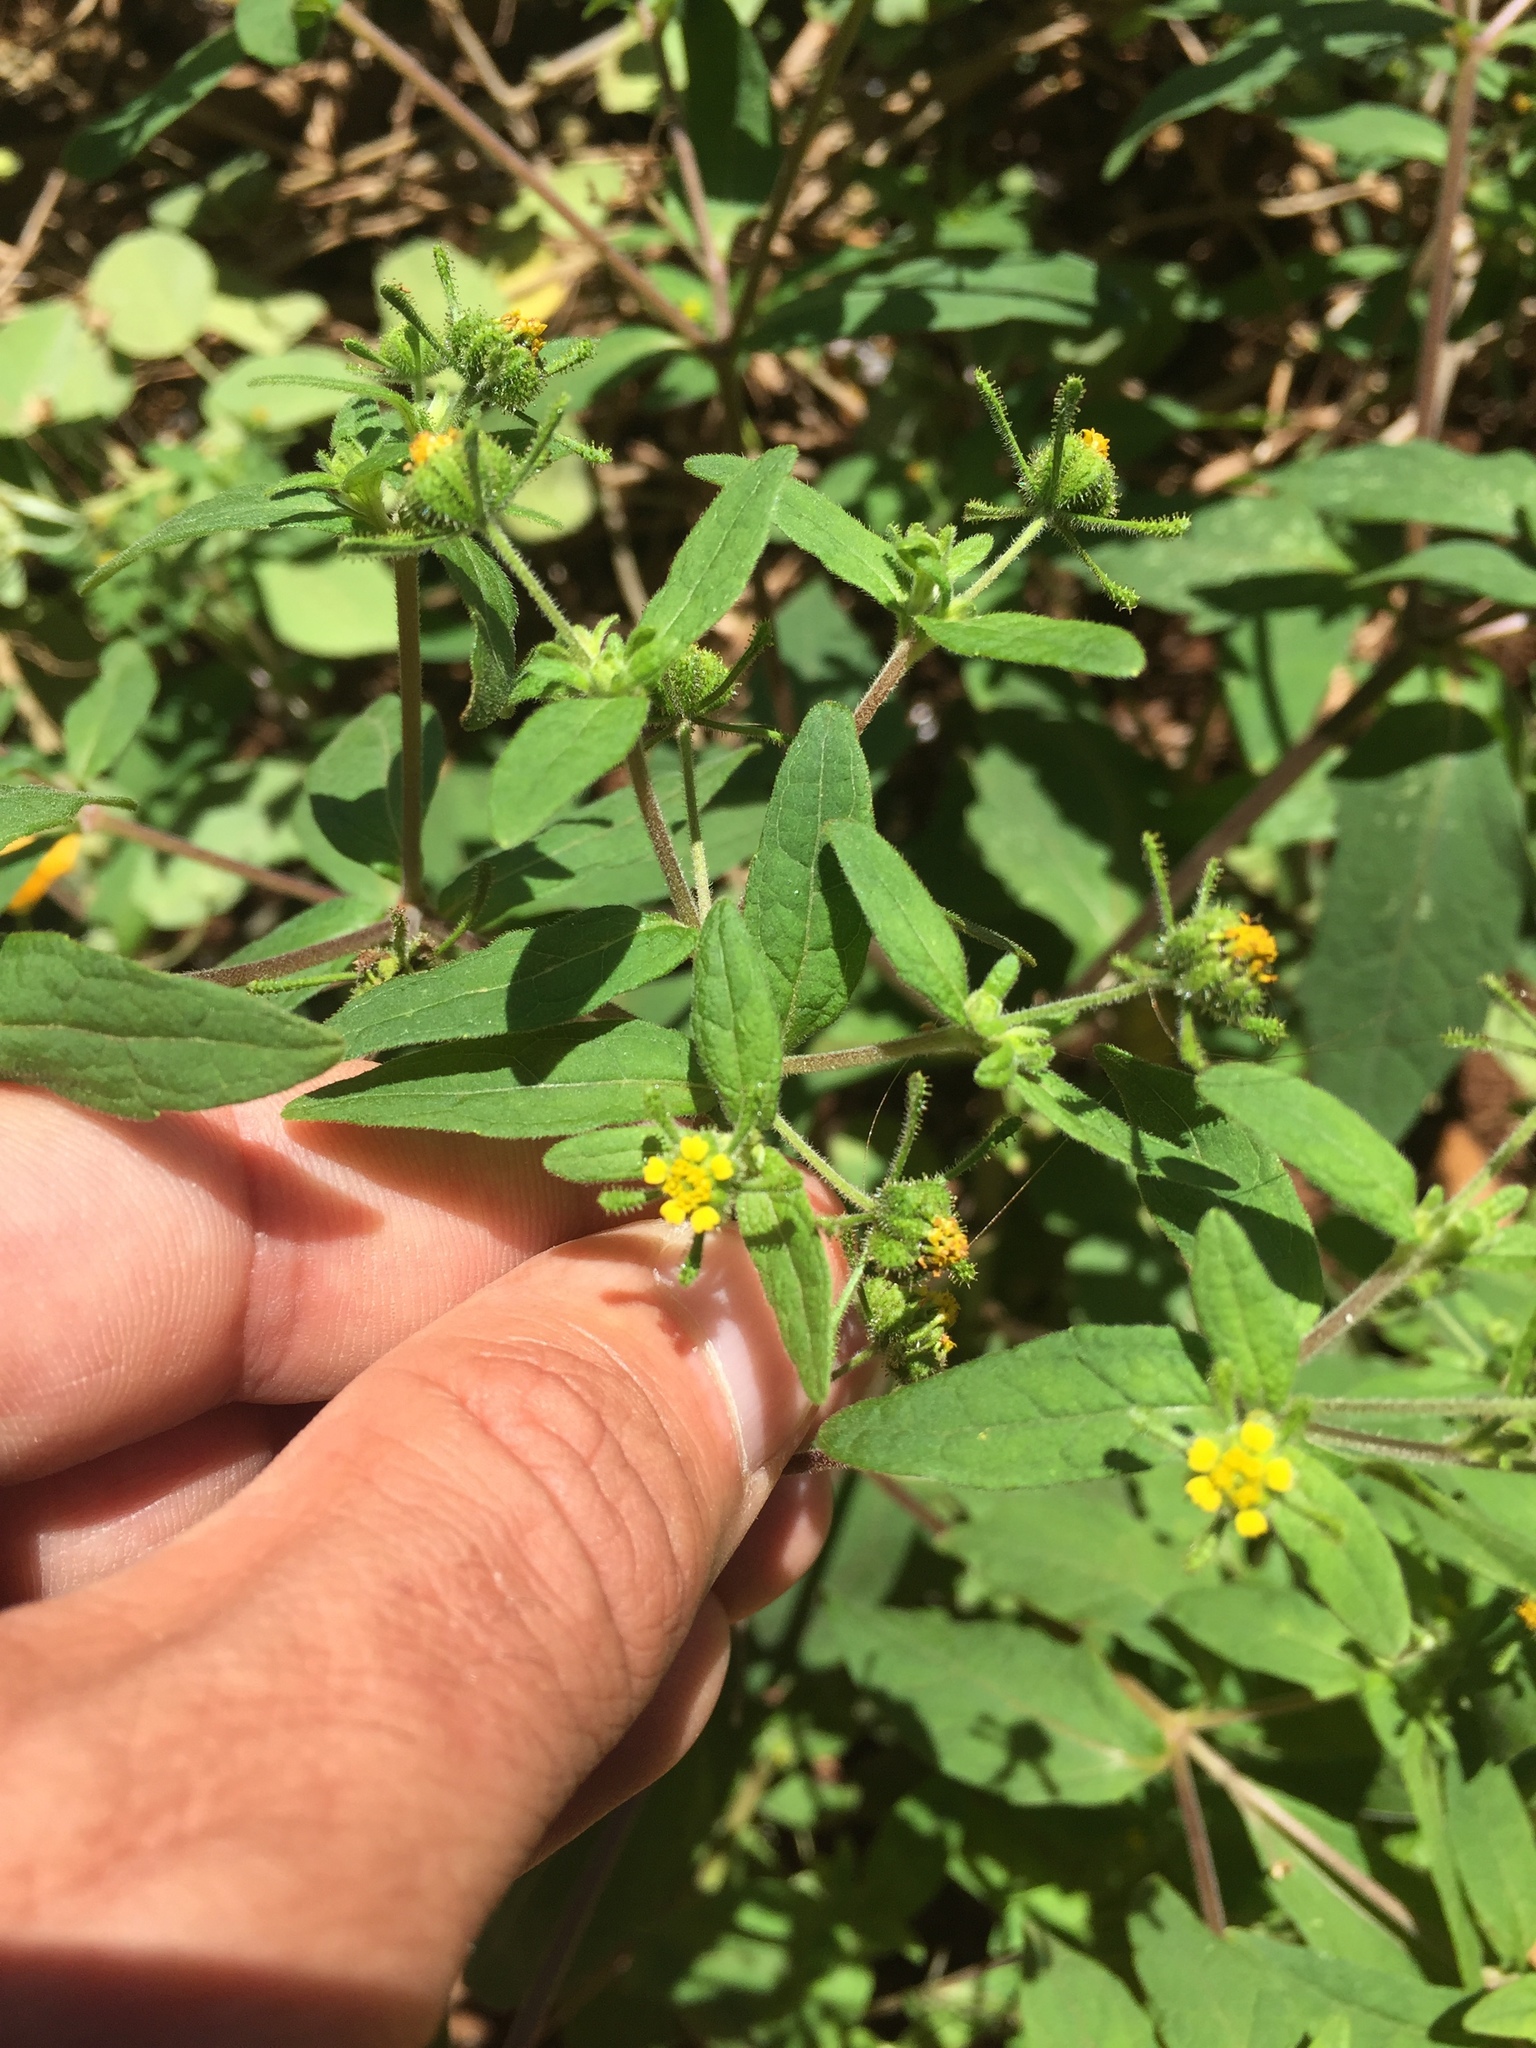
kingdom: Plantae
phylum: Tracheophyta
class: Magnoliopsida
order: Asterales
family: Asteraceae
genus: Sigesbeckia
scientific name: Sigesbeckia orientalis
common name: Eastern st paul's-wort
